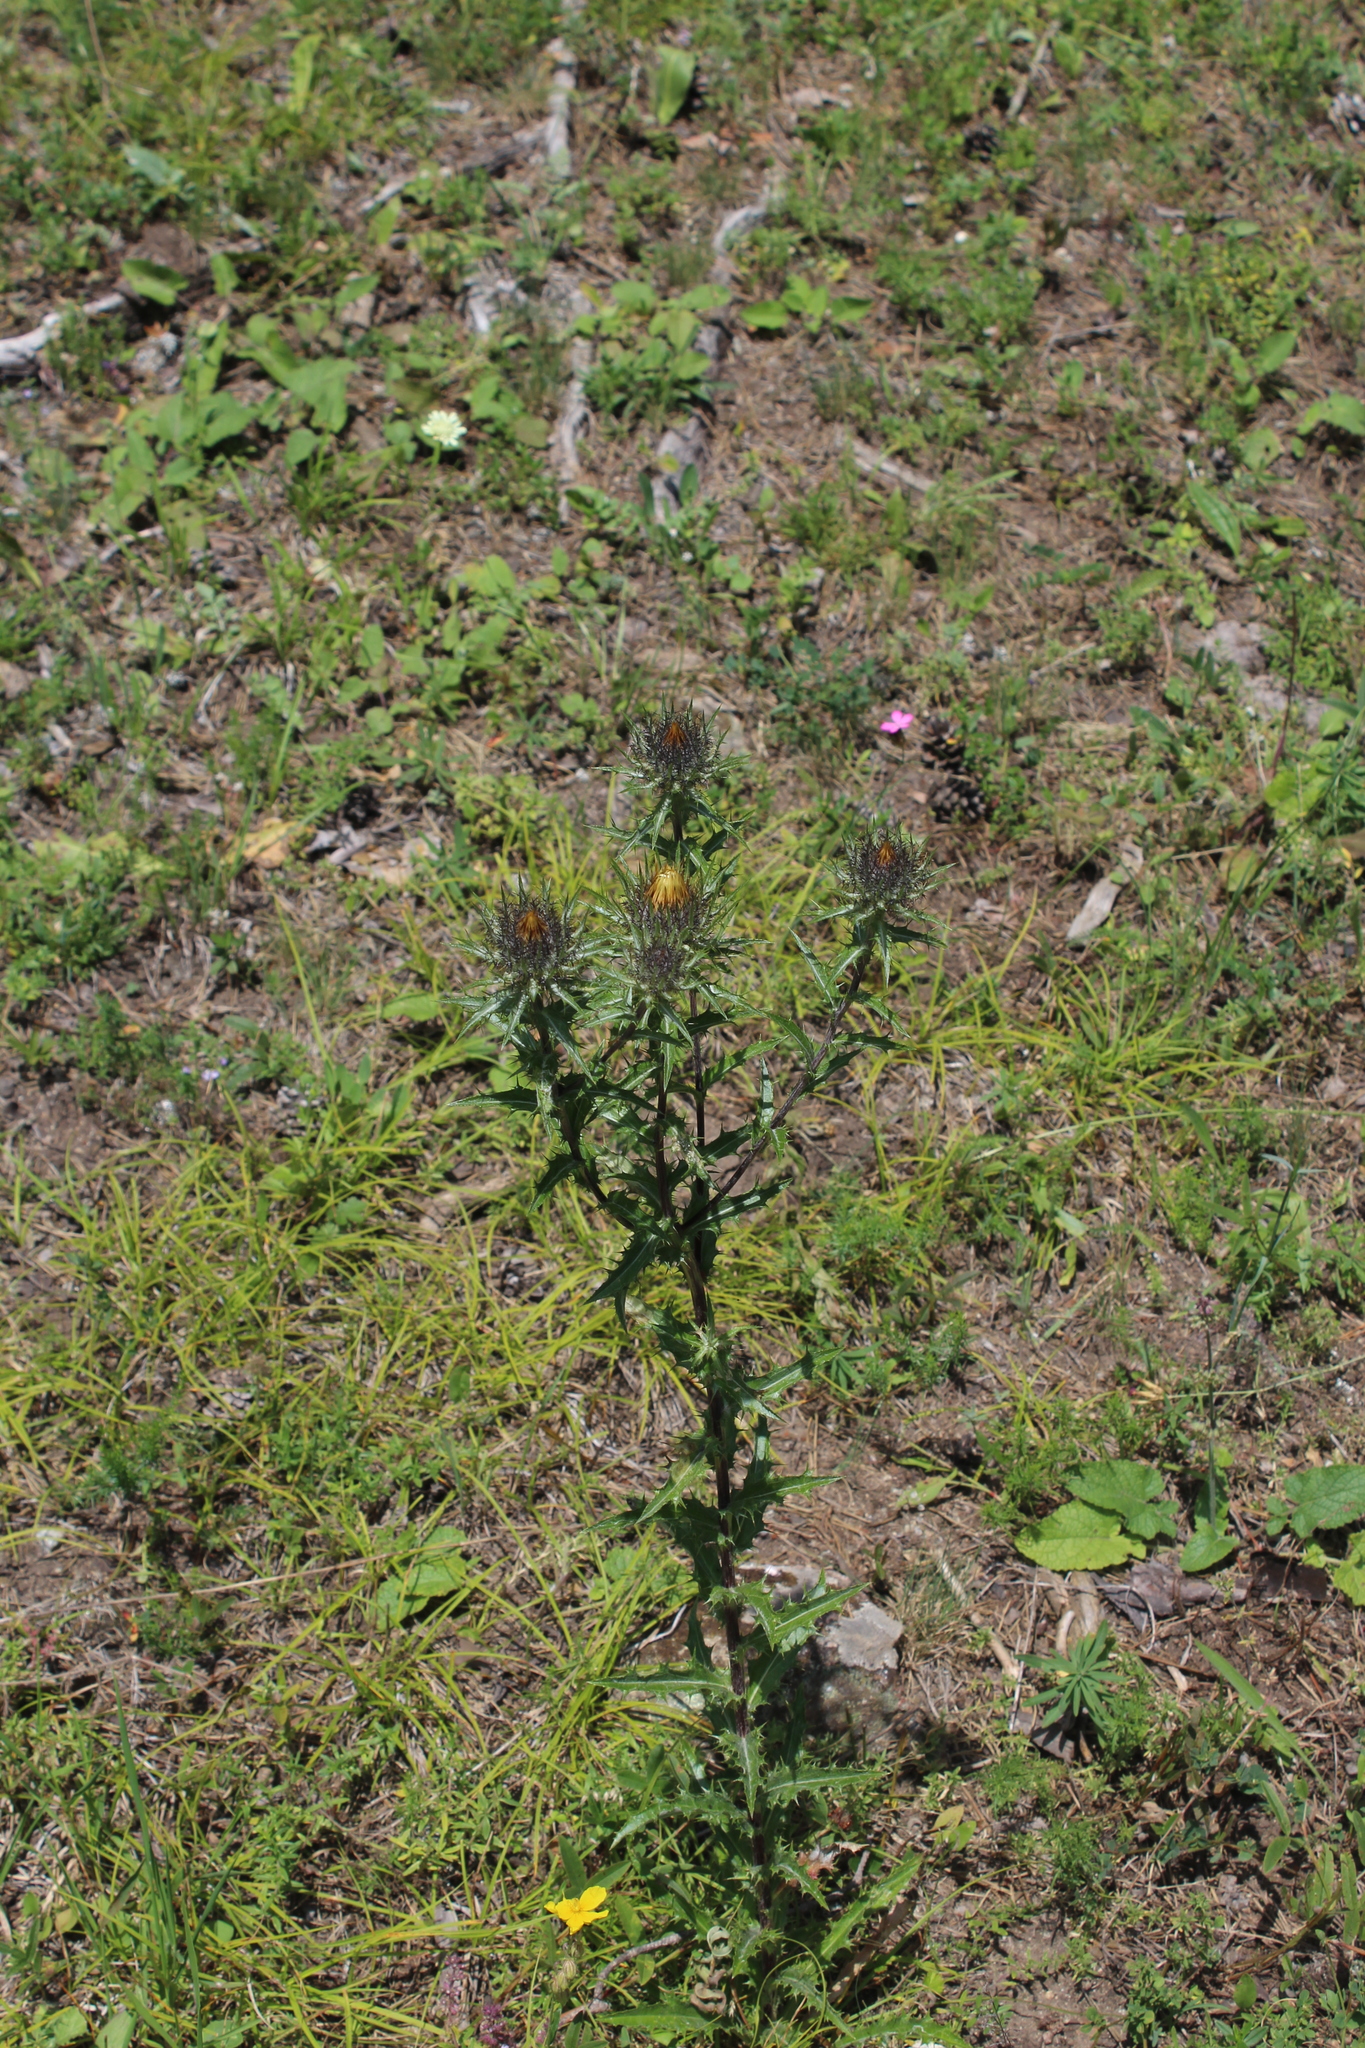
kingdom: Plantae
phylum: Tracheophyta
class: Magnoliopsida
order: Asterales
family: Asteraceae
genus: Carlina
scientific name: Carlina biebersteinii
